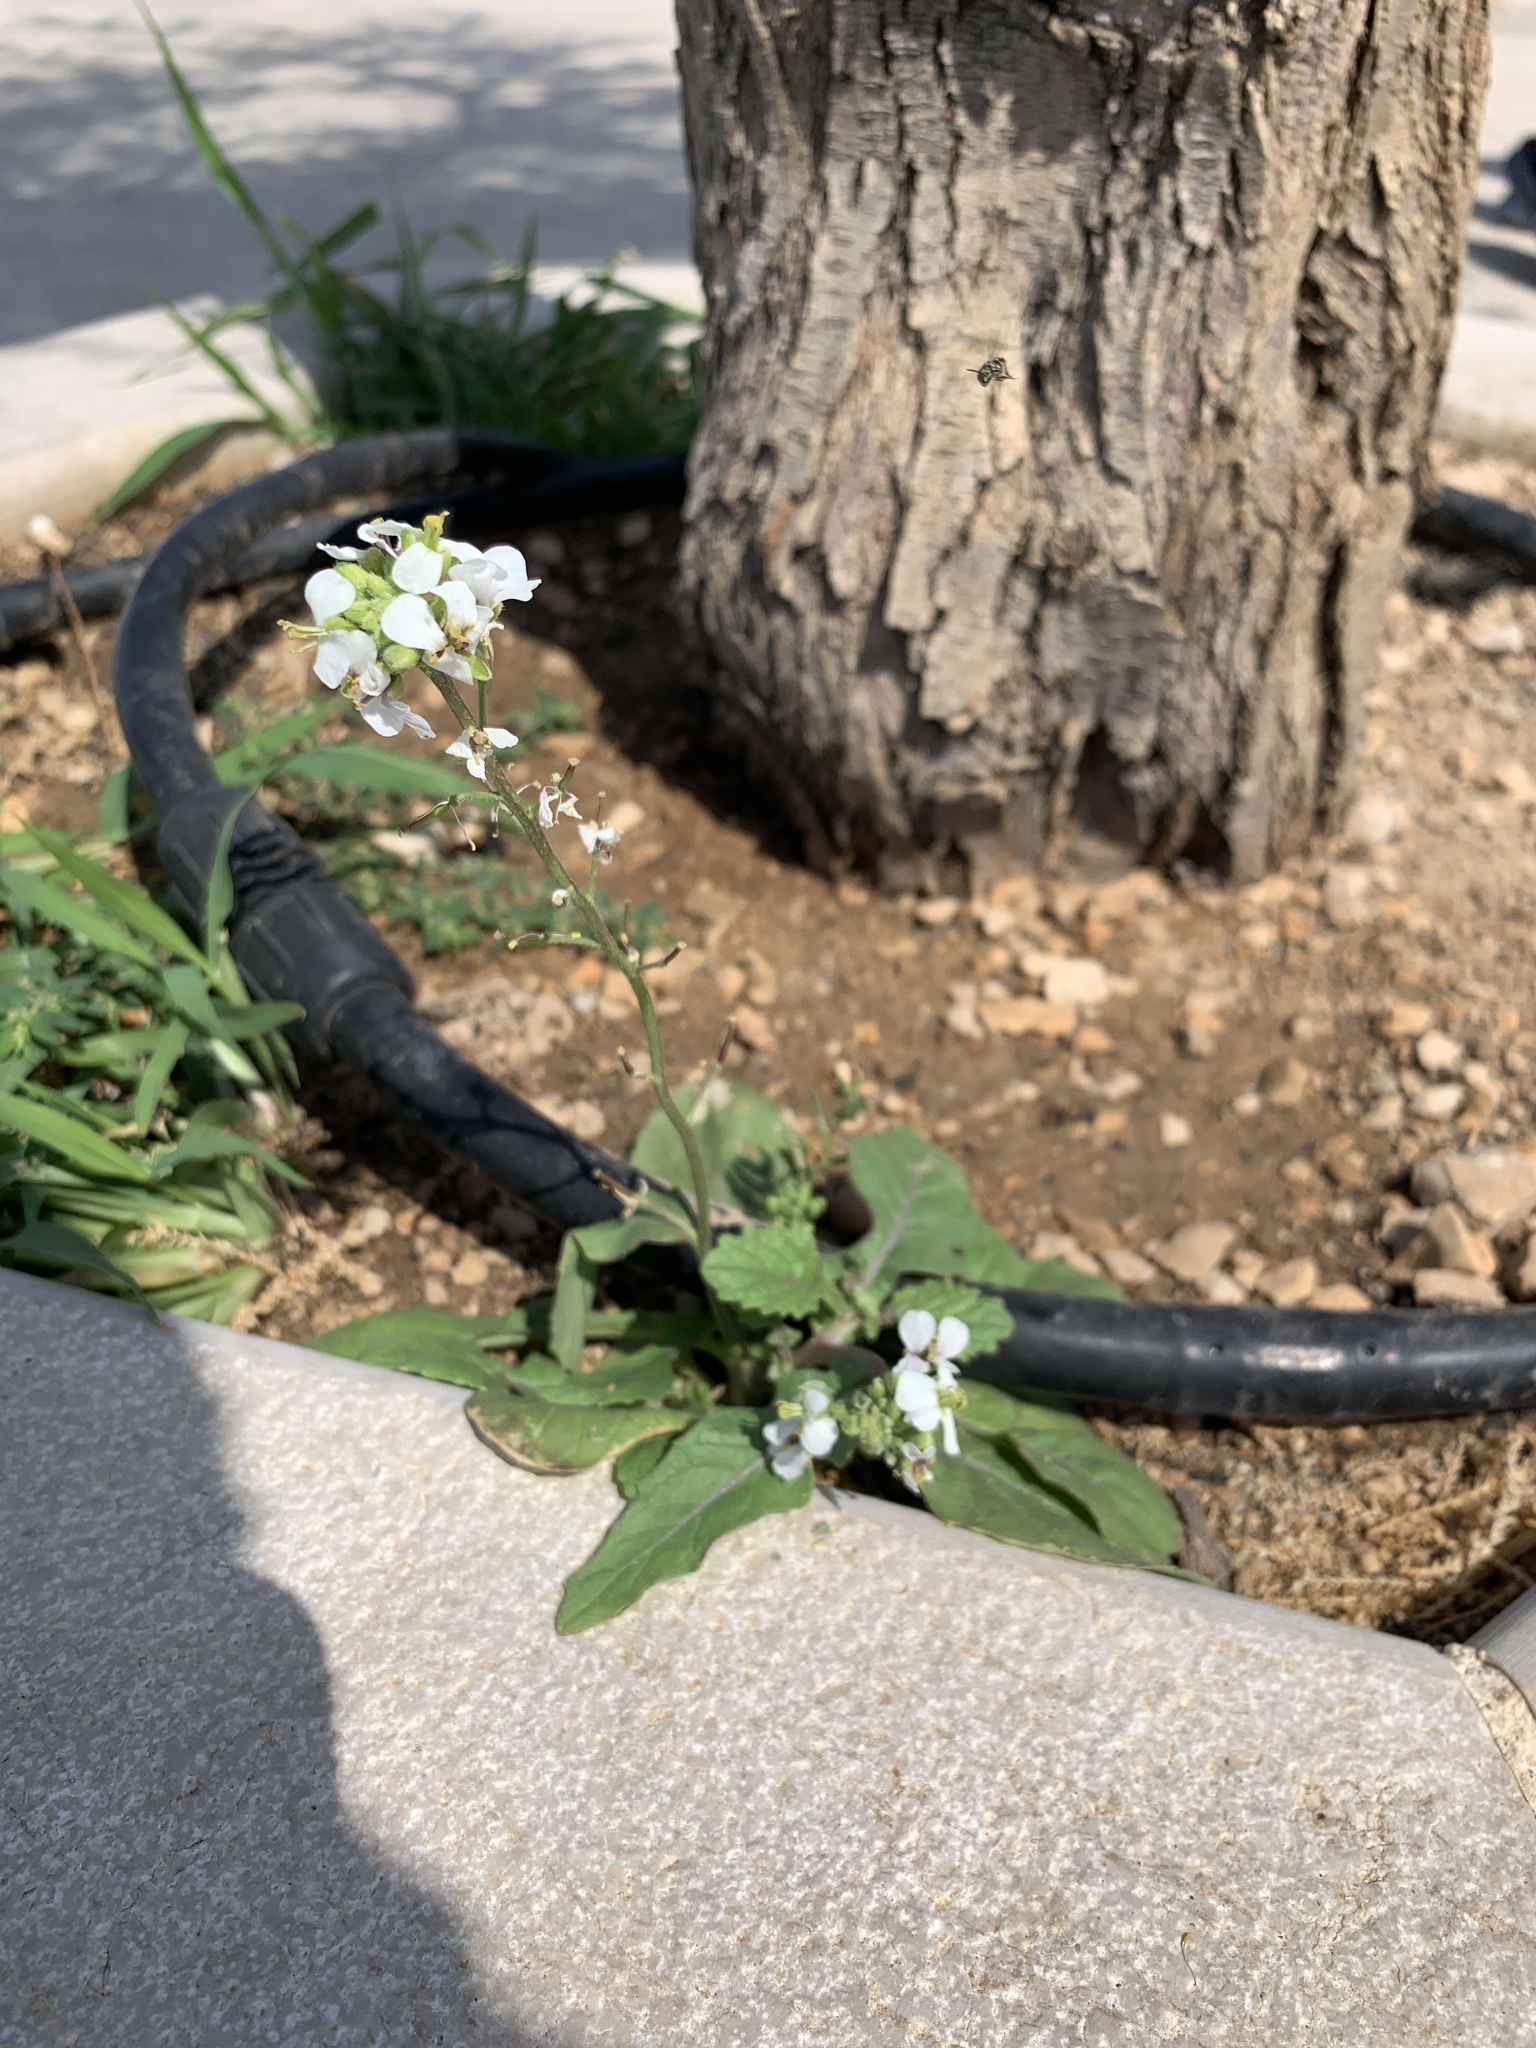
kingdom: Plantae
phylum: Tracheophyta
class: Magnoliopsida
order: Brassicales
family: Brassicaceae
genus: Diplotaxis
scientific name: Diplotaxis erucoides
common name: White rocket
